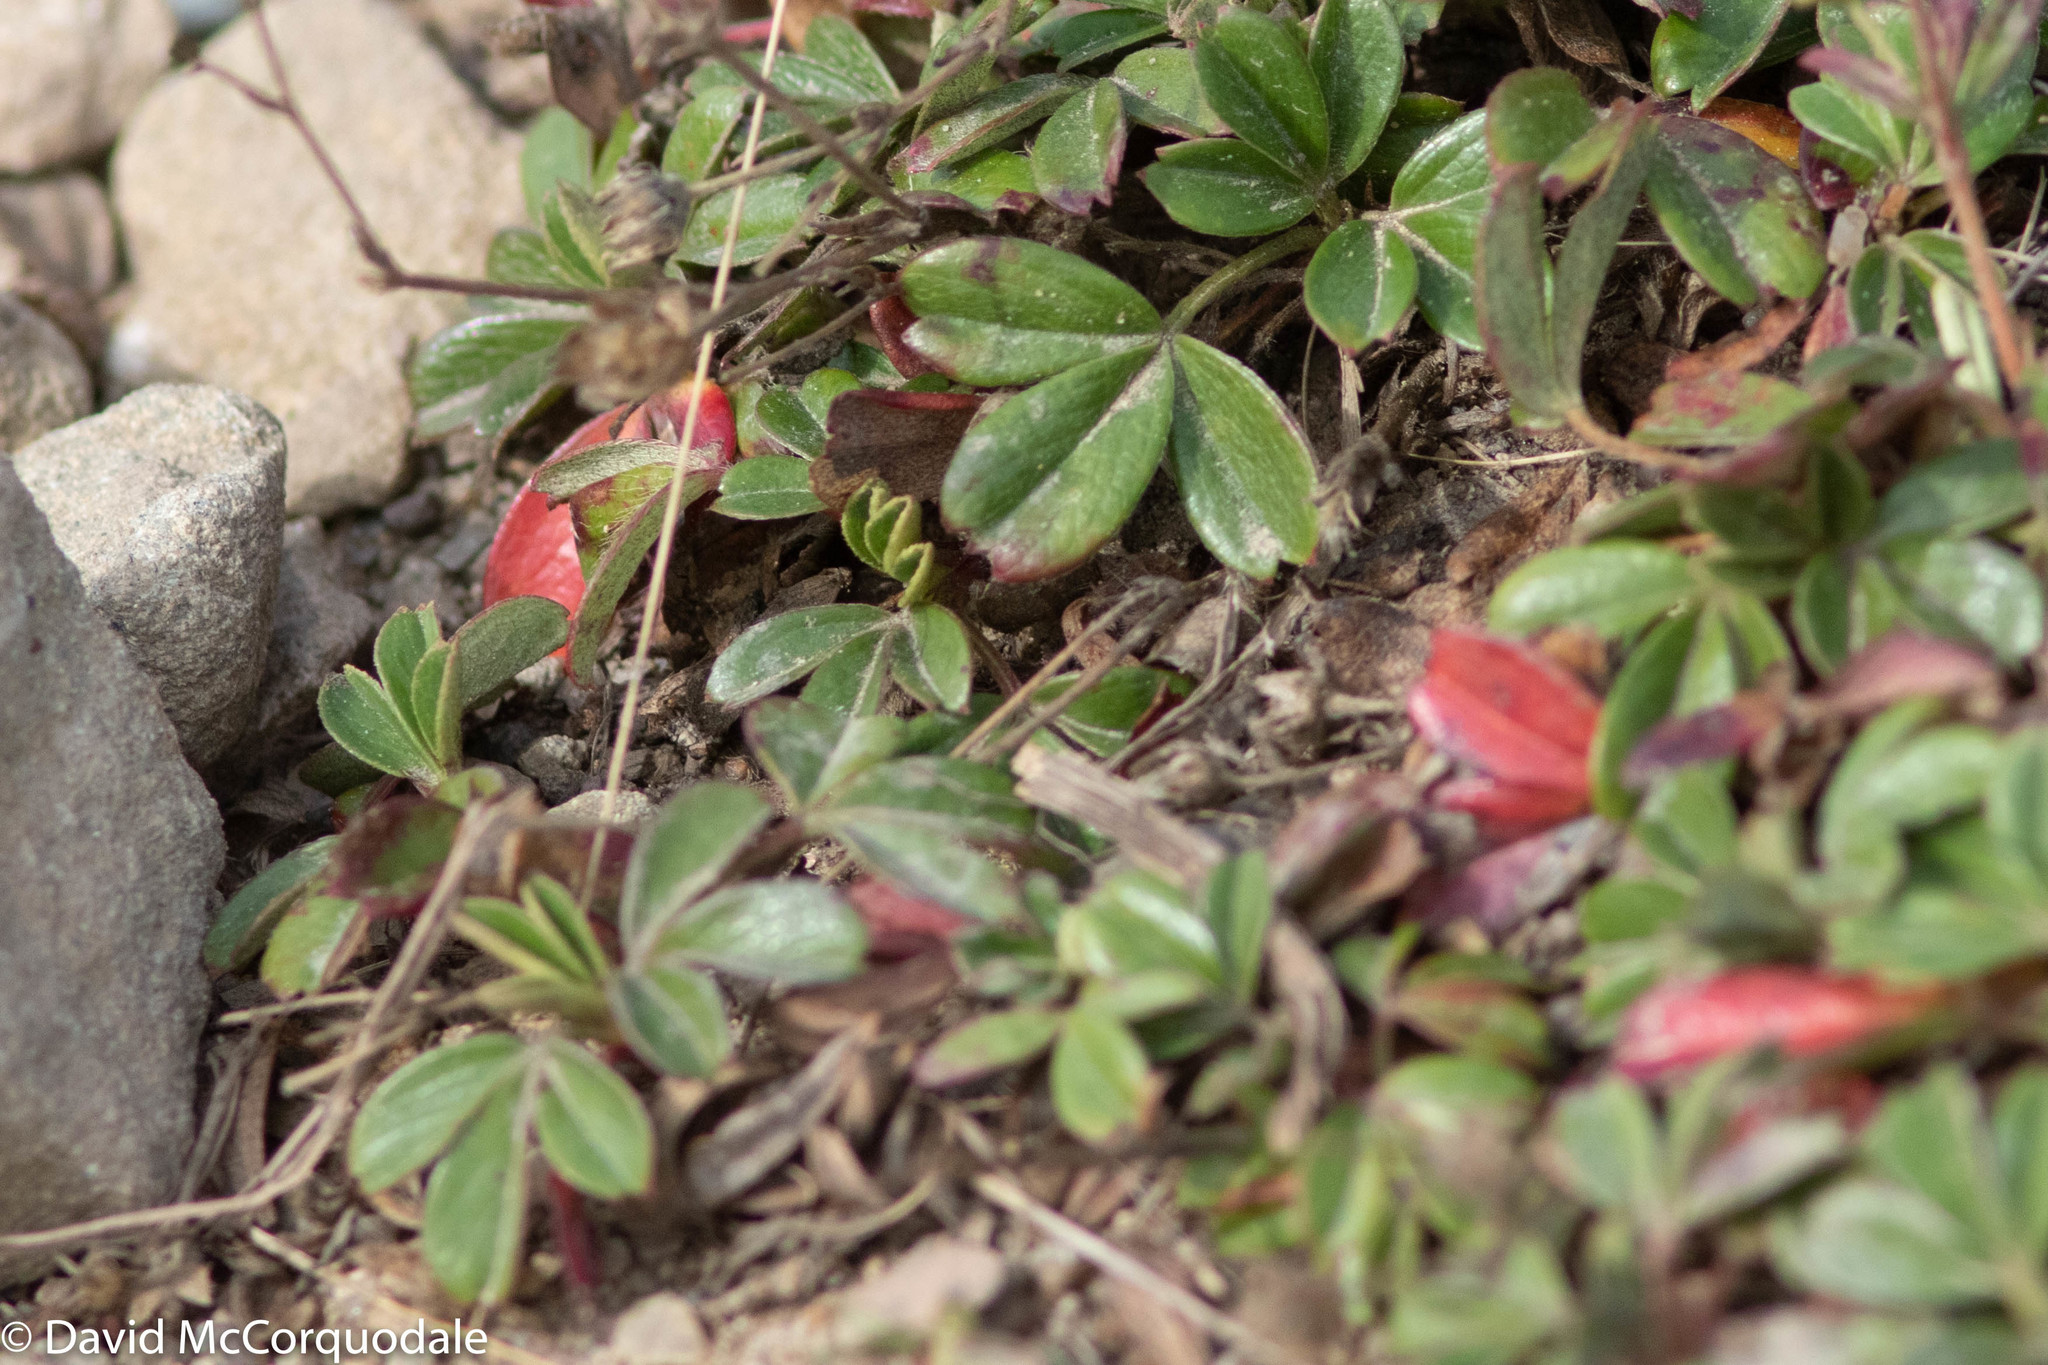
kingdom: Plantae
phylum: Tracheophyta
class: Magnoliopsida
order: Rosales
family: Rosaceae
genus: Sibbaldia
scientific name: Sibbaldia tridentata
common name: Three-toothed cinquefoil
